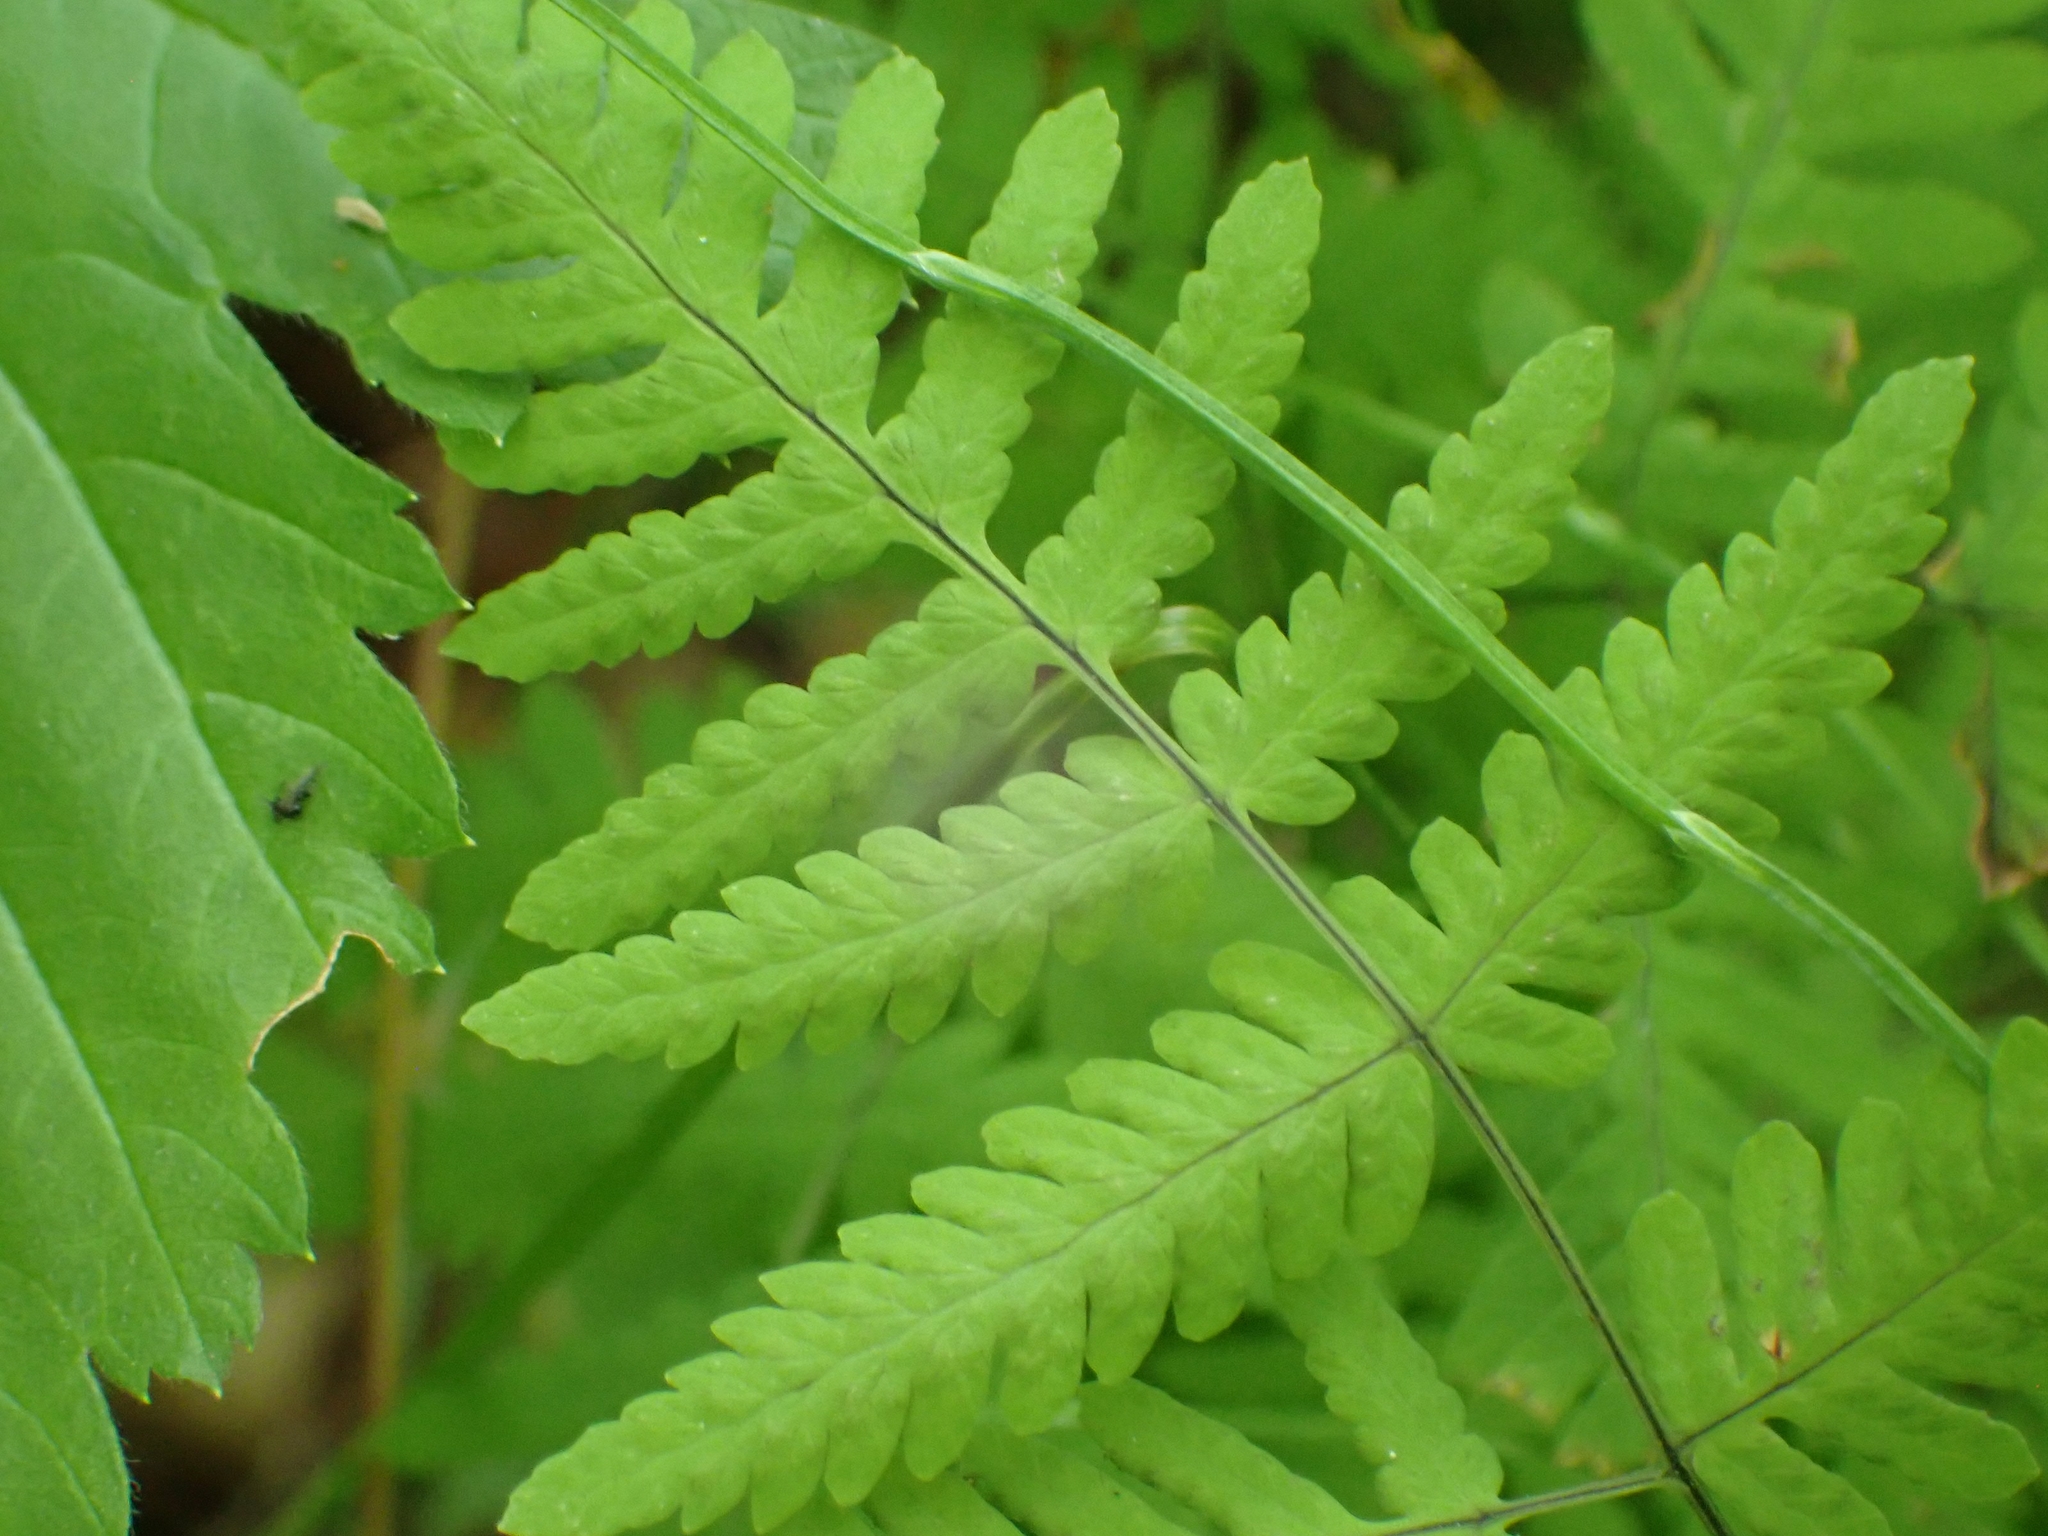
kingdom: Plantae
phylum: Tracheophyta
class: Polypodiopsida
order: Polypodiales
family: Cystopteridaceae
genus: Gymnocarpium
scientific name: Gymnocarpium dryopteris
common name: Oak fern
